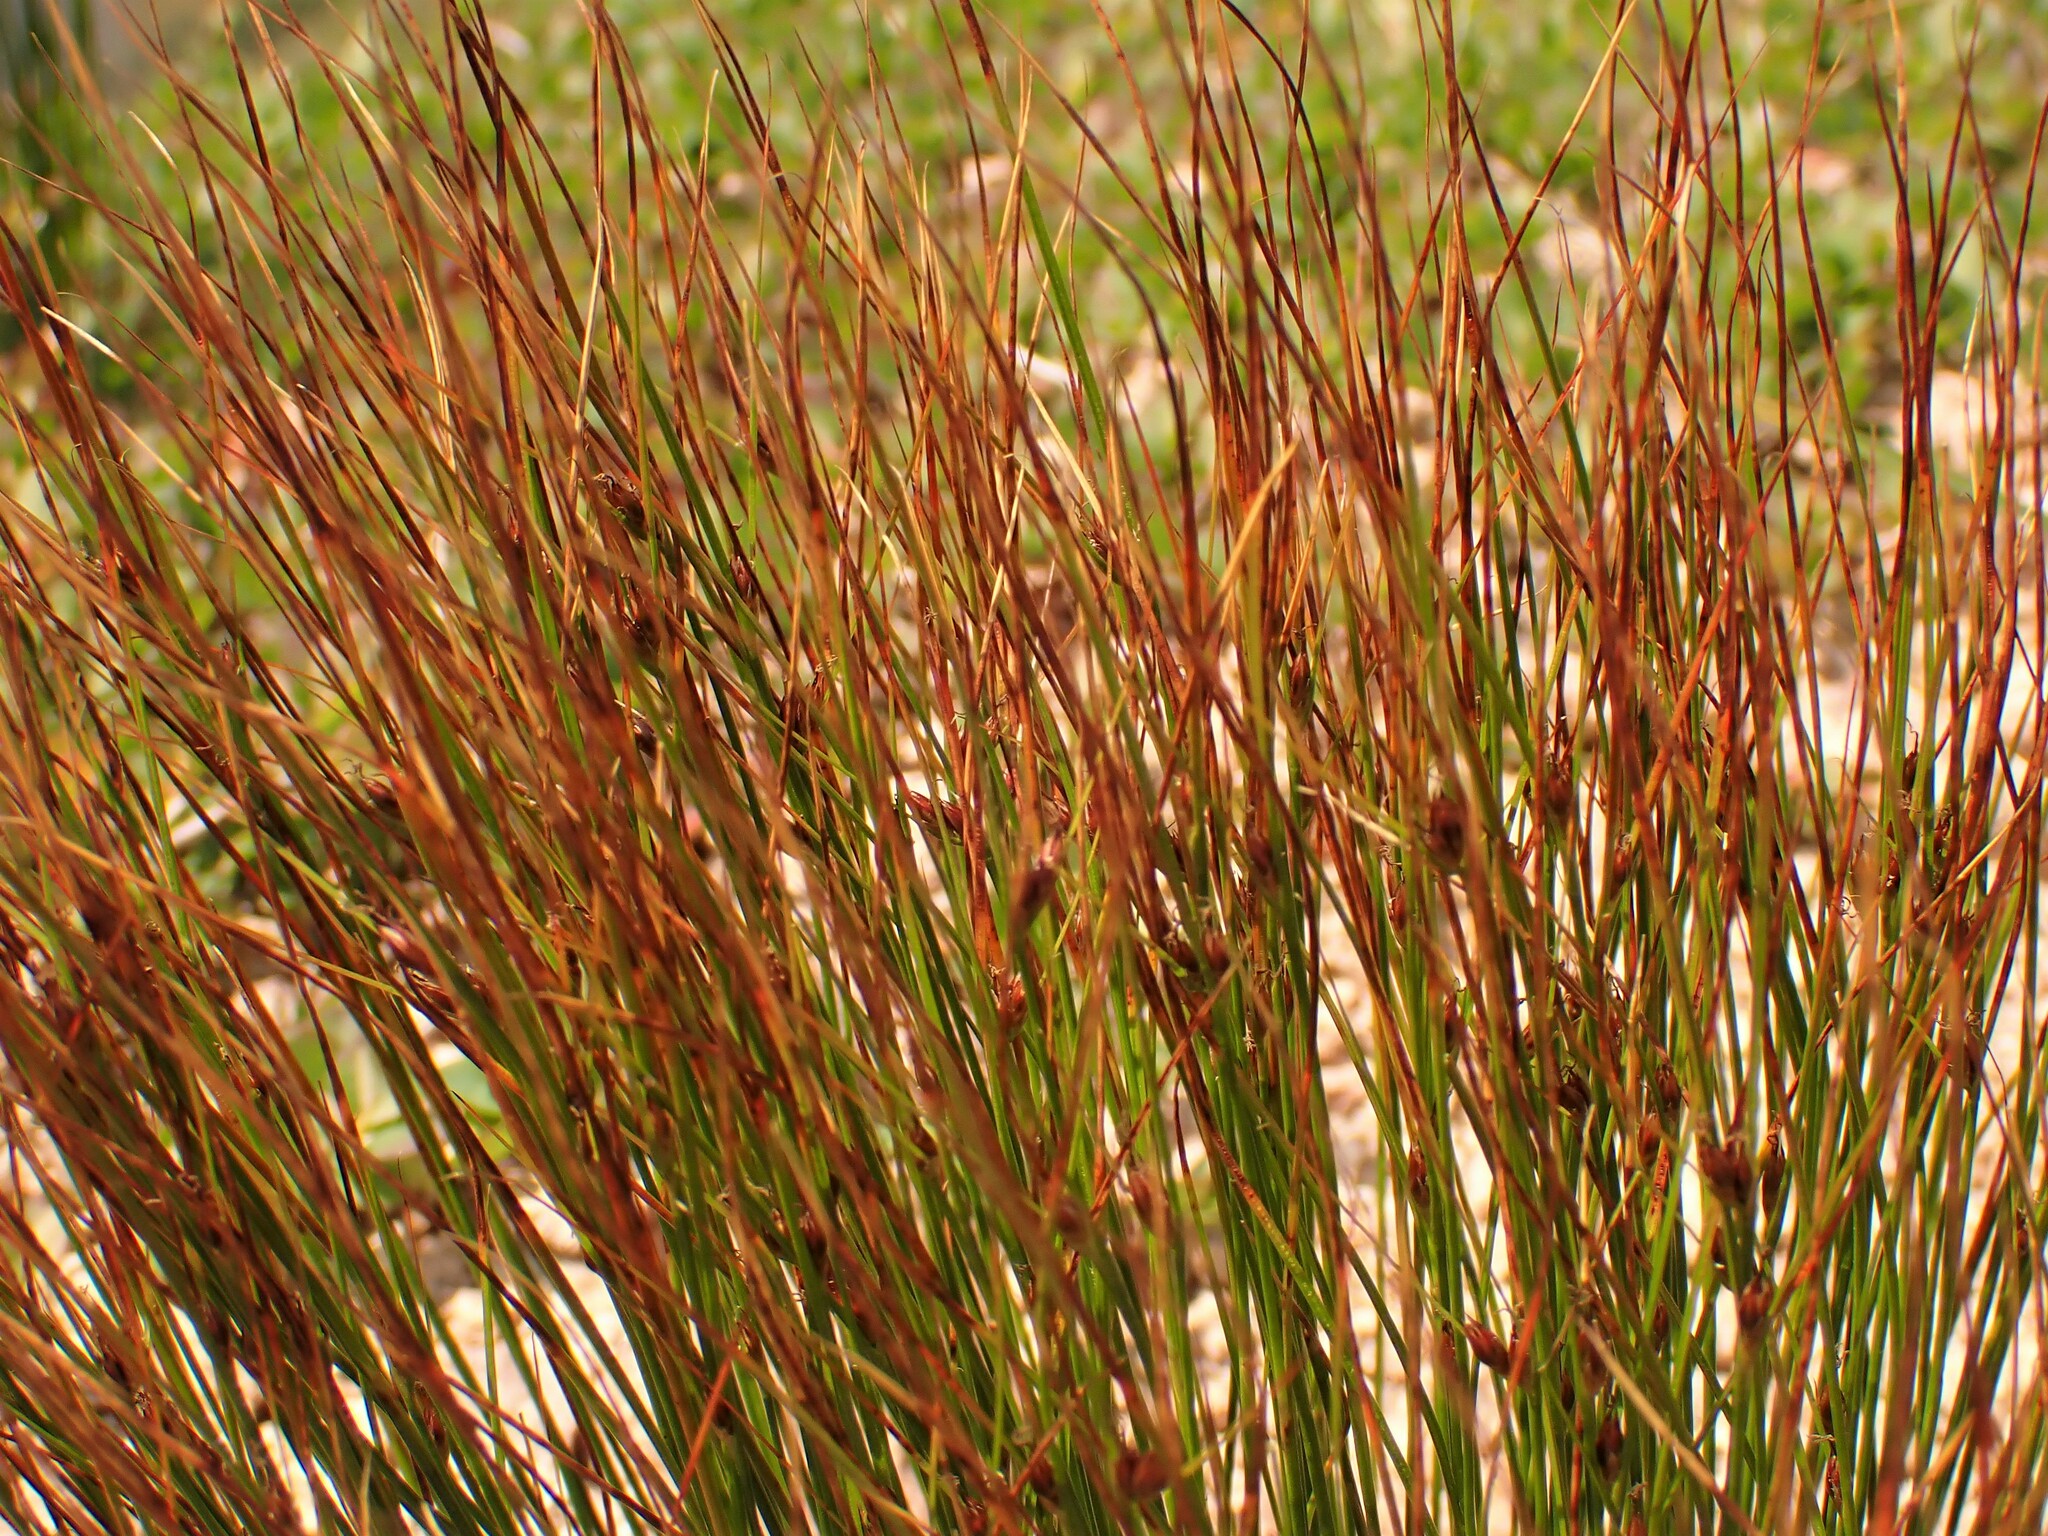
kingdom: Plantae
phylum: Tracheophyta
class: Liliopsida
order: Poales
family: Juncaceae
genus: Oreojuncus
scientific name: Oreojuncus trifidus
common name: Highland rush
